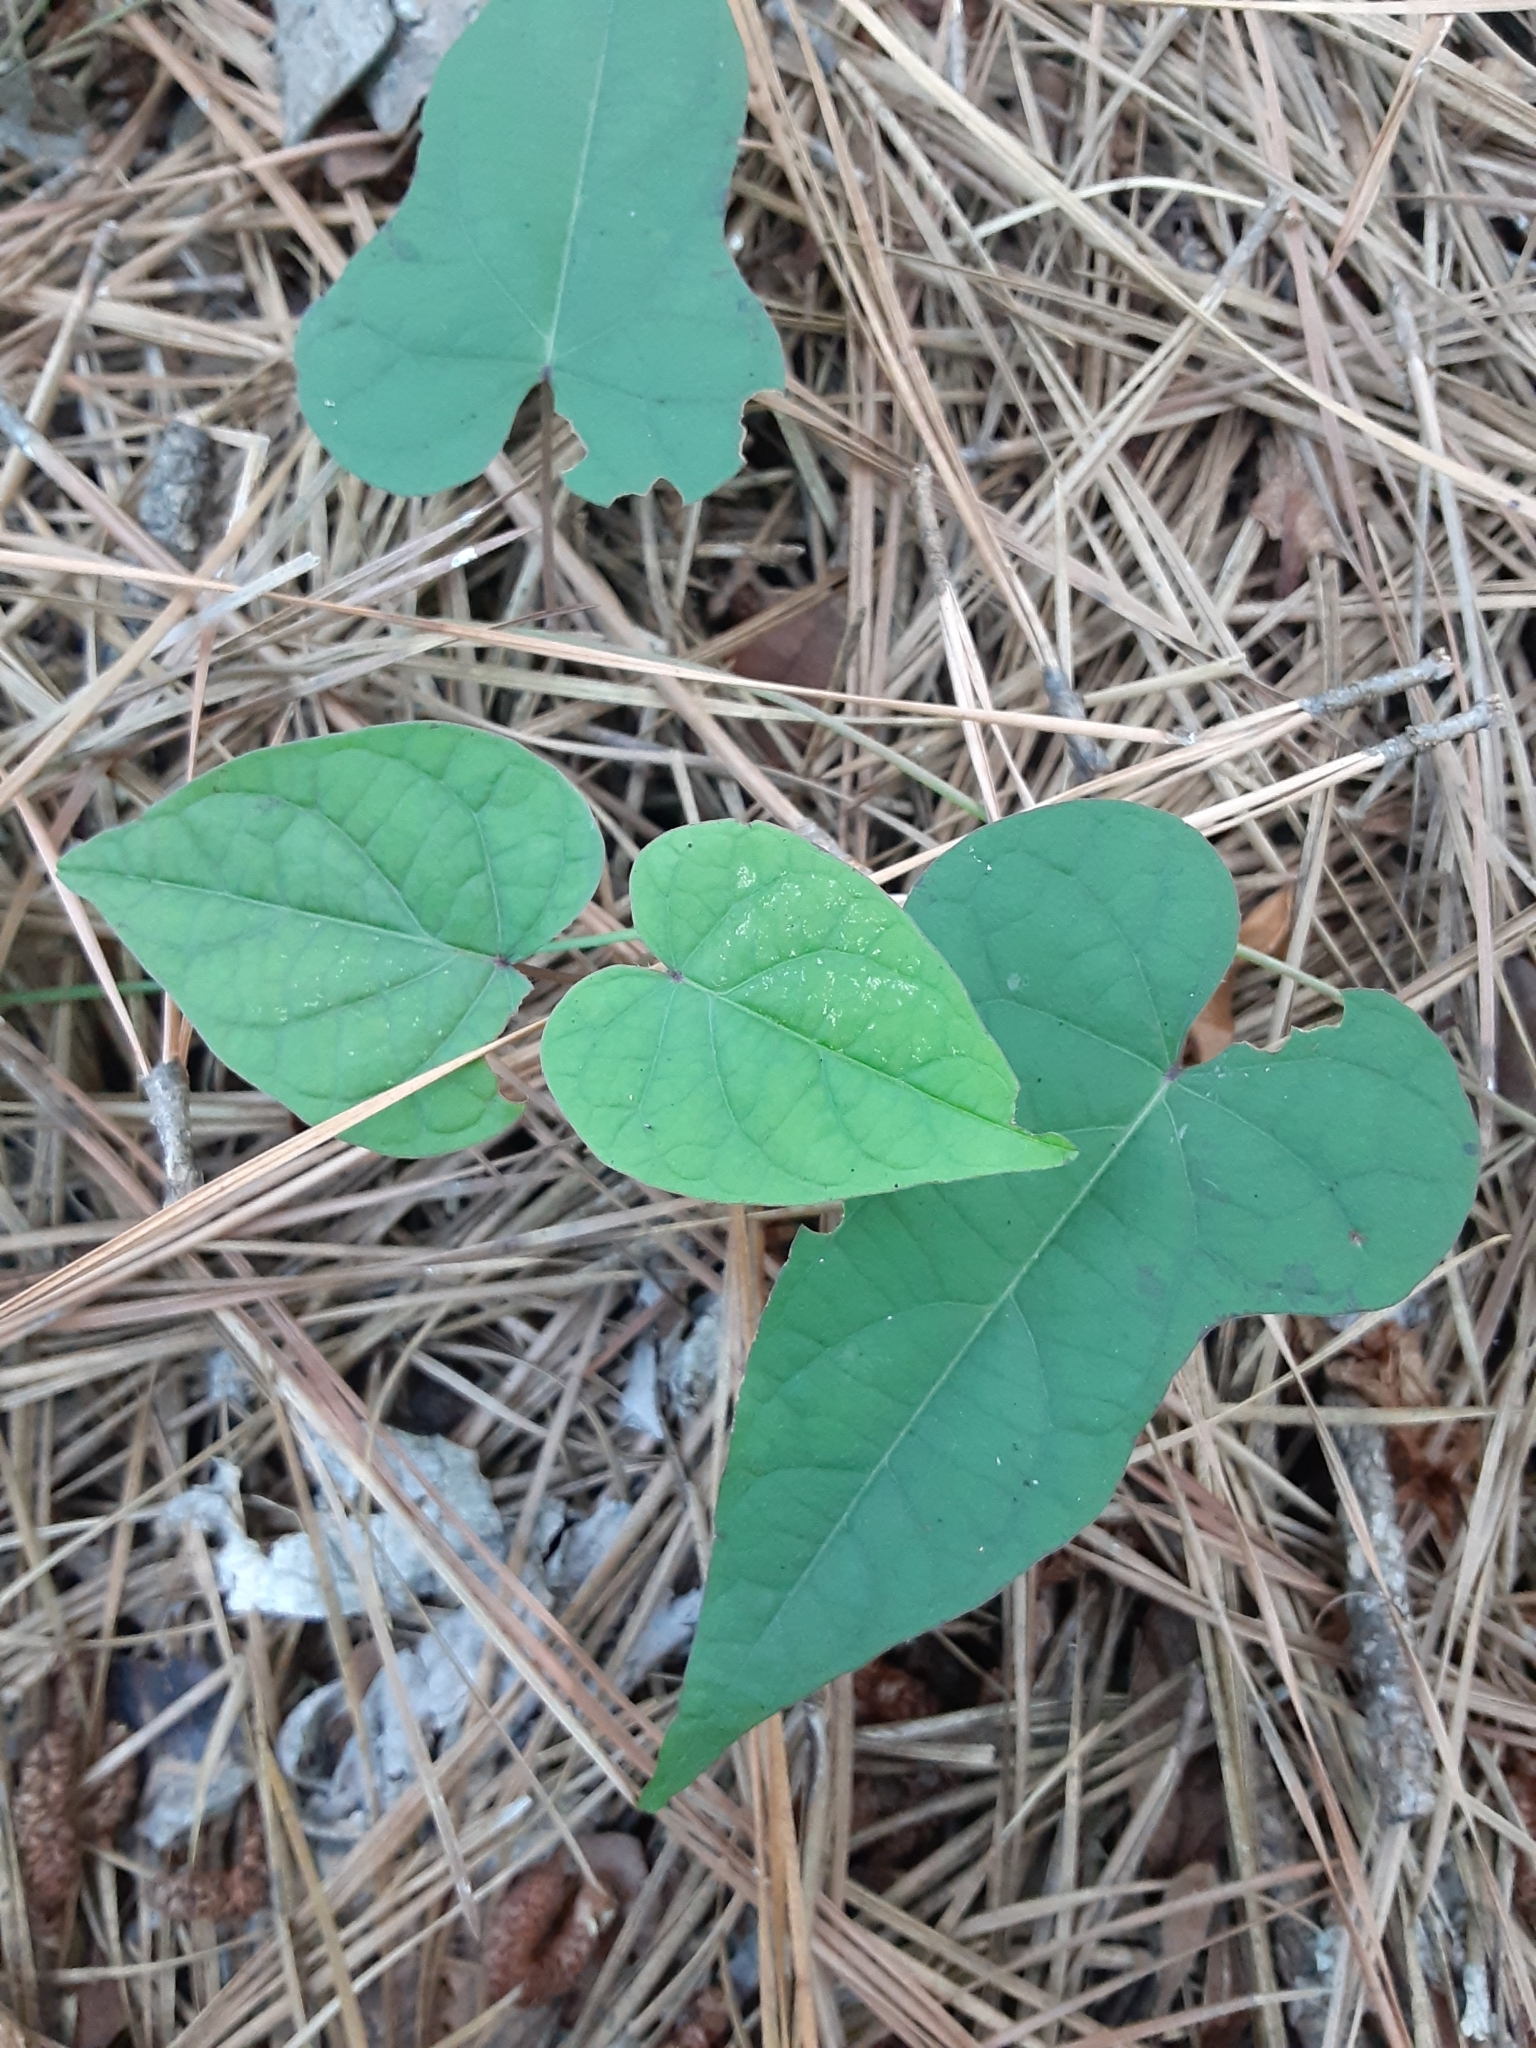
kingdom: Plantae
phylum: Tracheophyta
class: Magnoliopsida
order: Solanales
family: Convolvulaceae
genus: Ipomoea
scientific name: Ipomoea pandurata
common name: Man-of-the-earth
